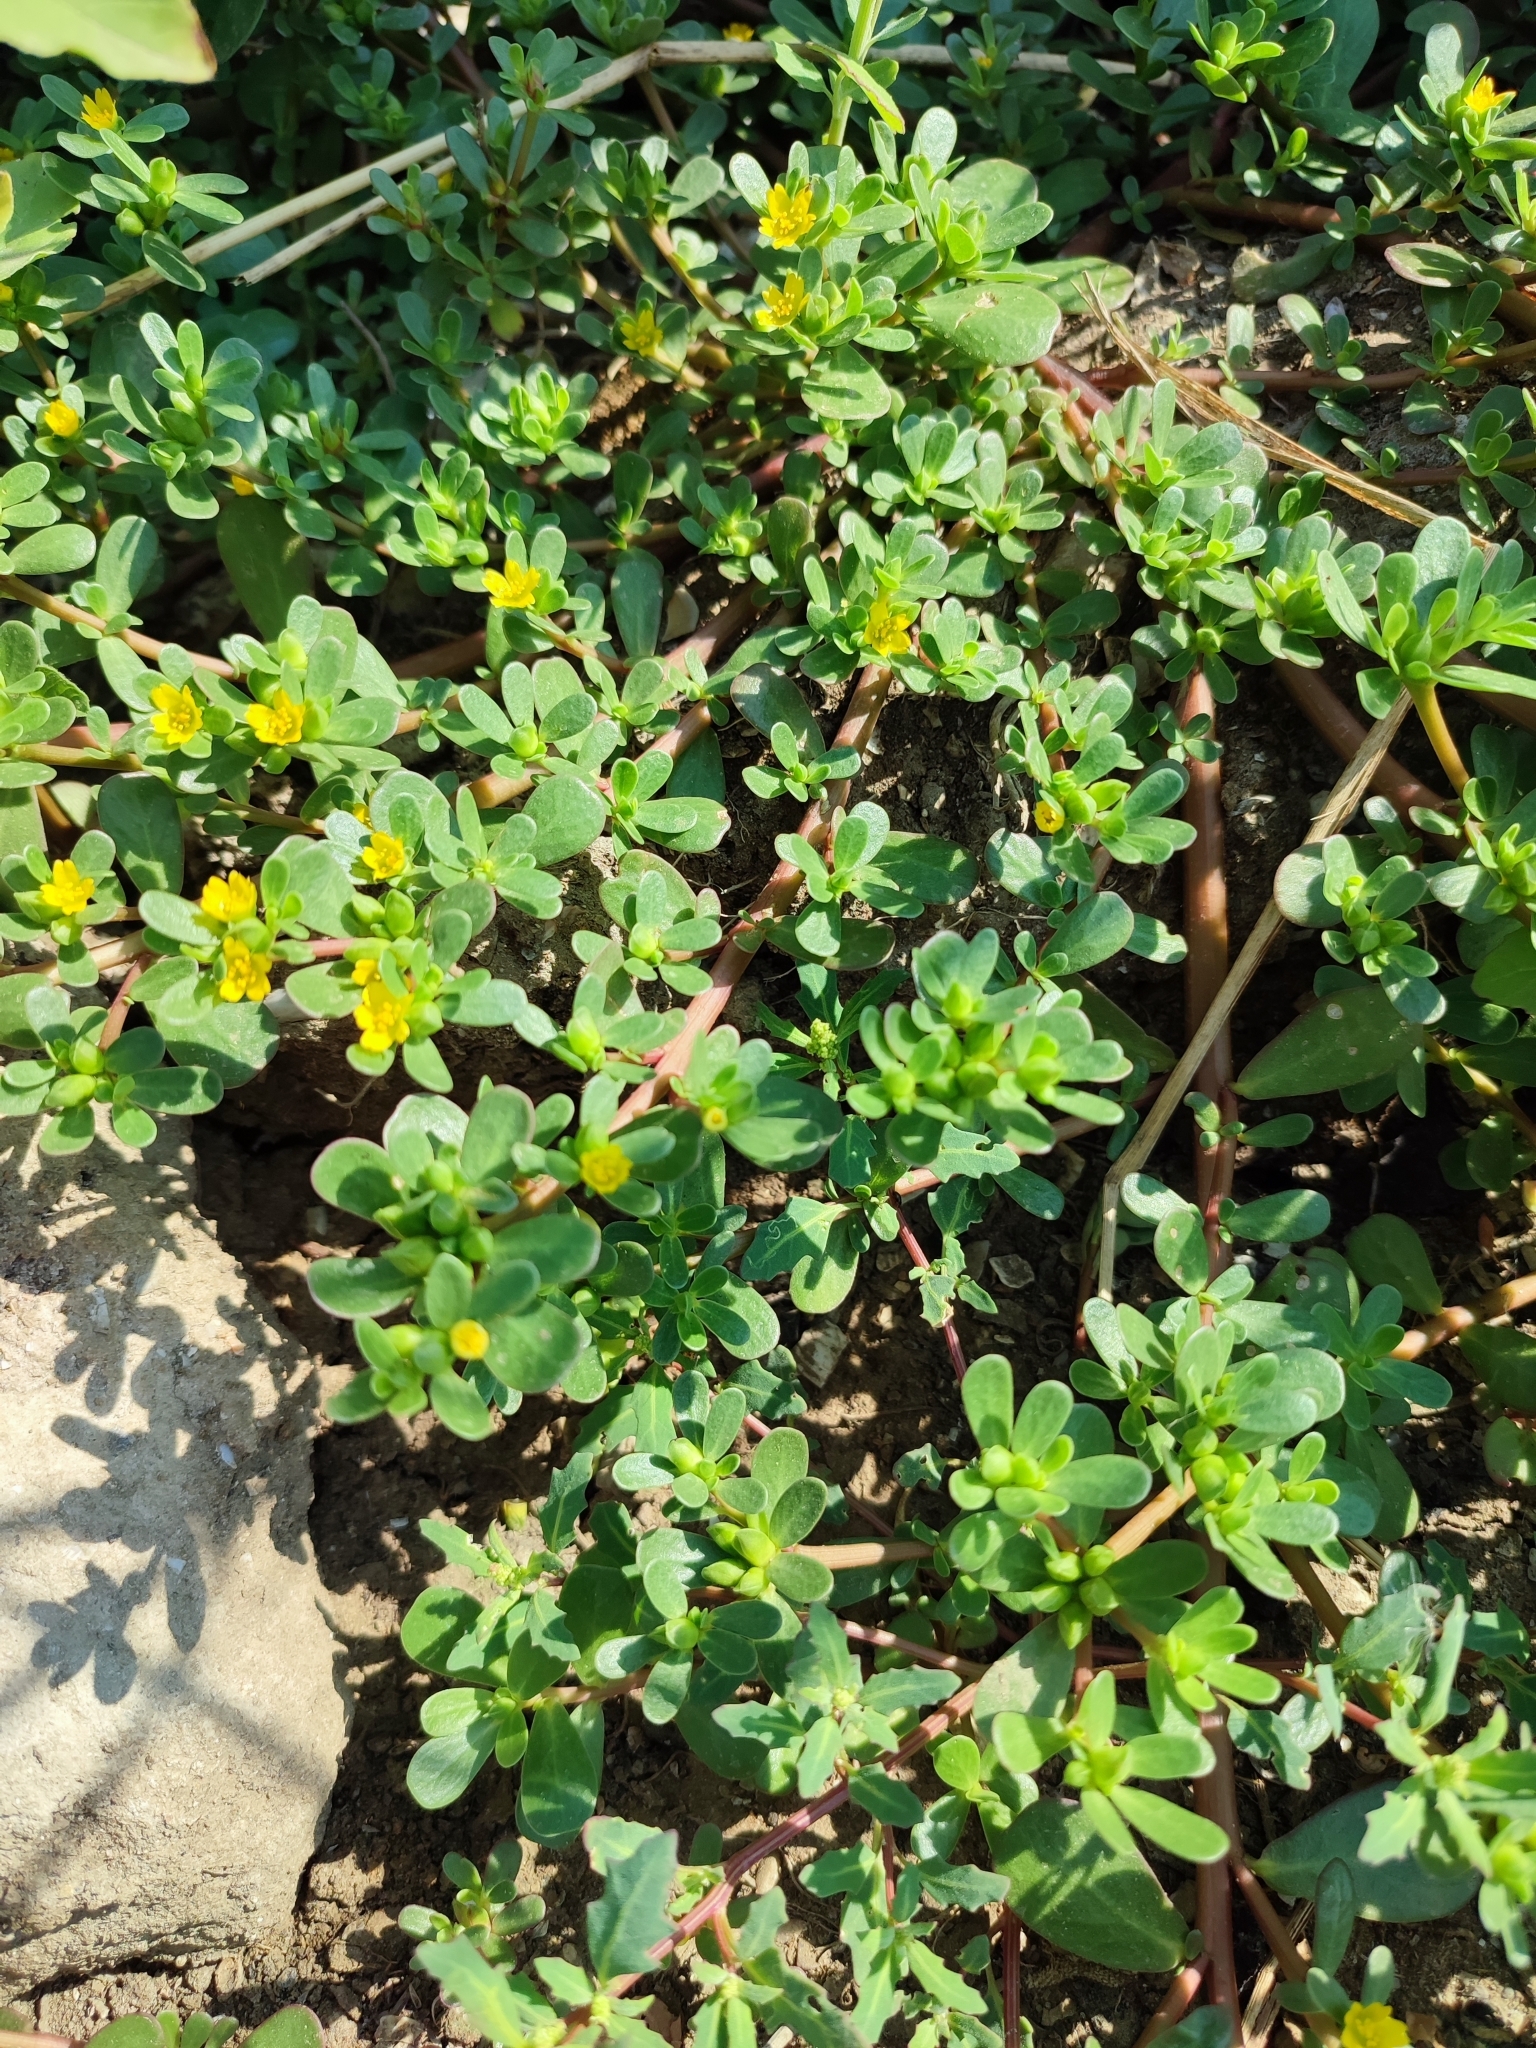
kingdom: Plantae
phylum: Tracheophyta
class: Magnoliopsida
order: Caryophyllales
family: Portulacaceae
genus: Portulaca
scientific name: Portulaca oleracea
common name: Common purslane
